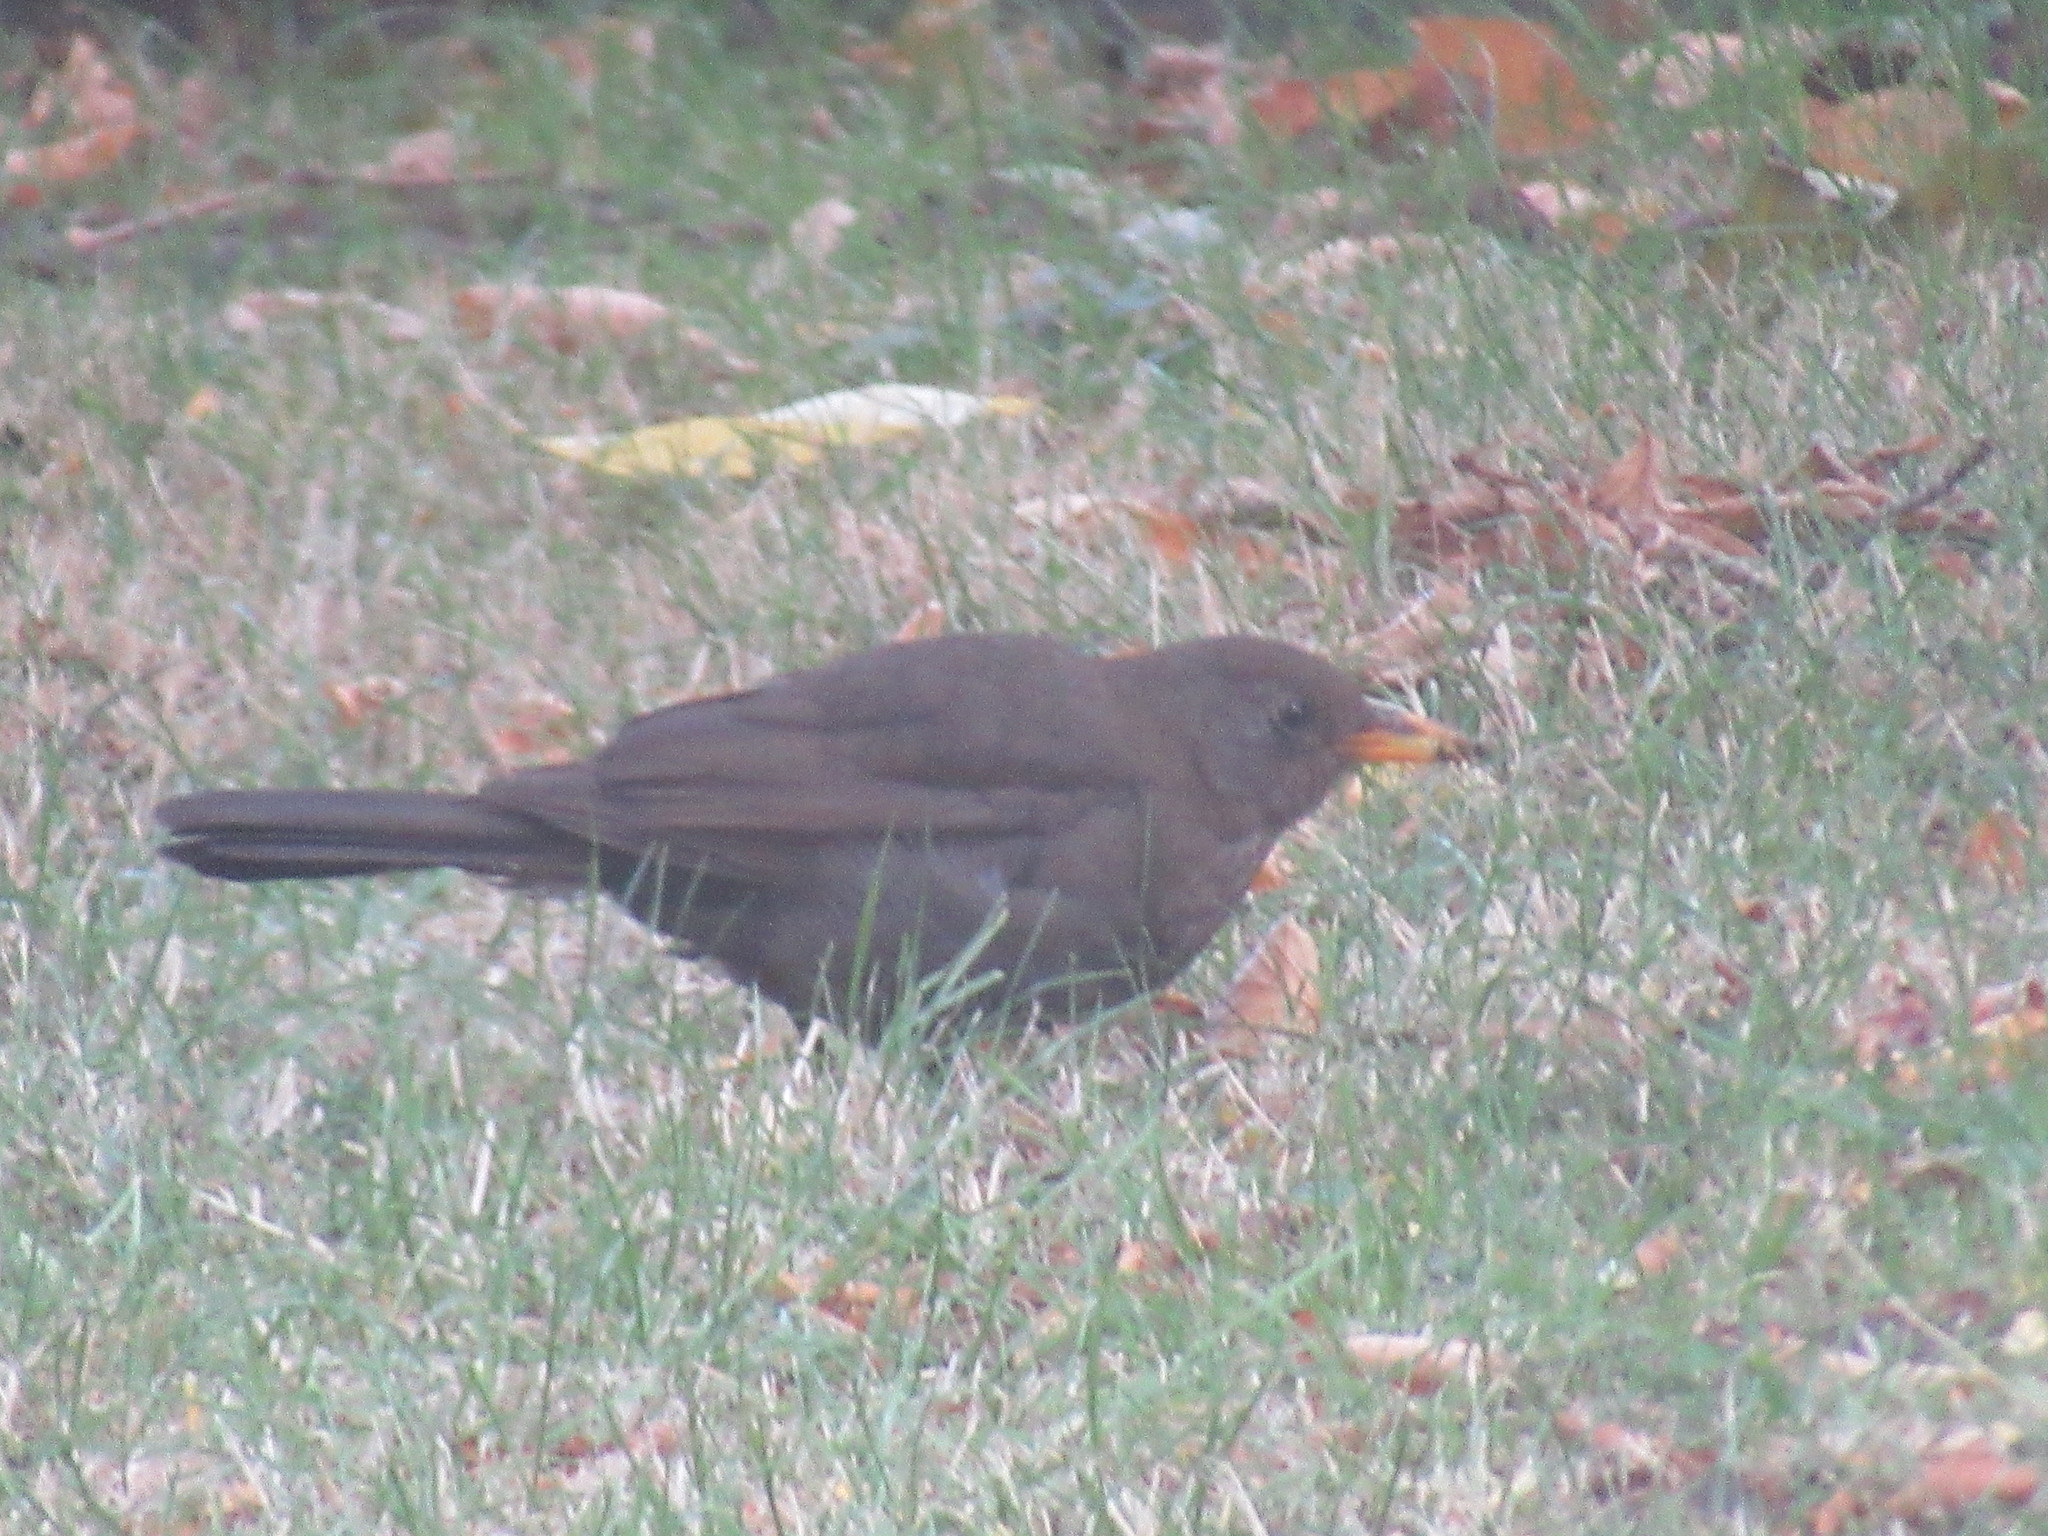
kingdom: Animalia
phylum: Chordata
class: Aves
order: Passeriformes
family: Turdidae
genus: Turdus
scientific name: Turdus merula
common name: Common blackbird
